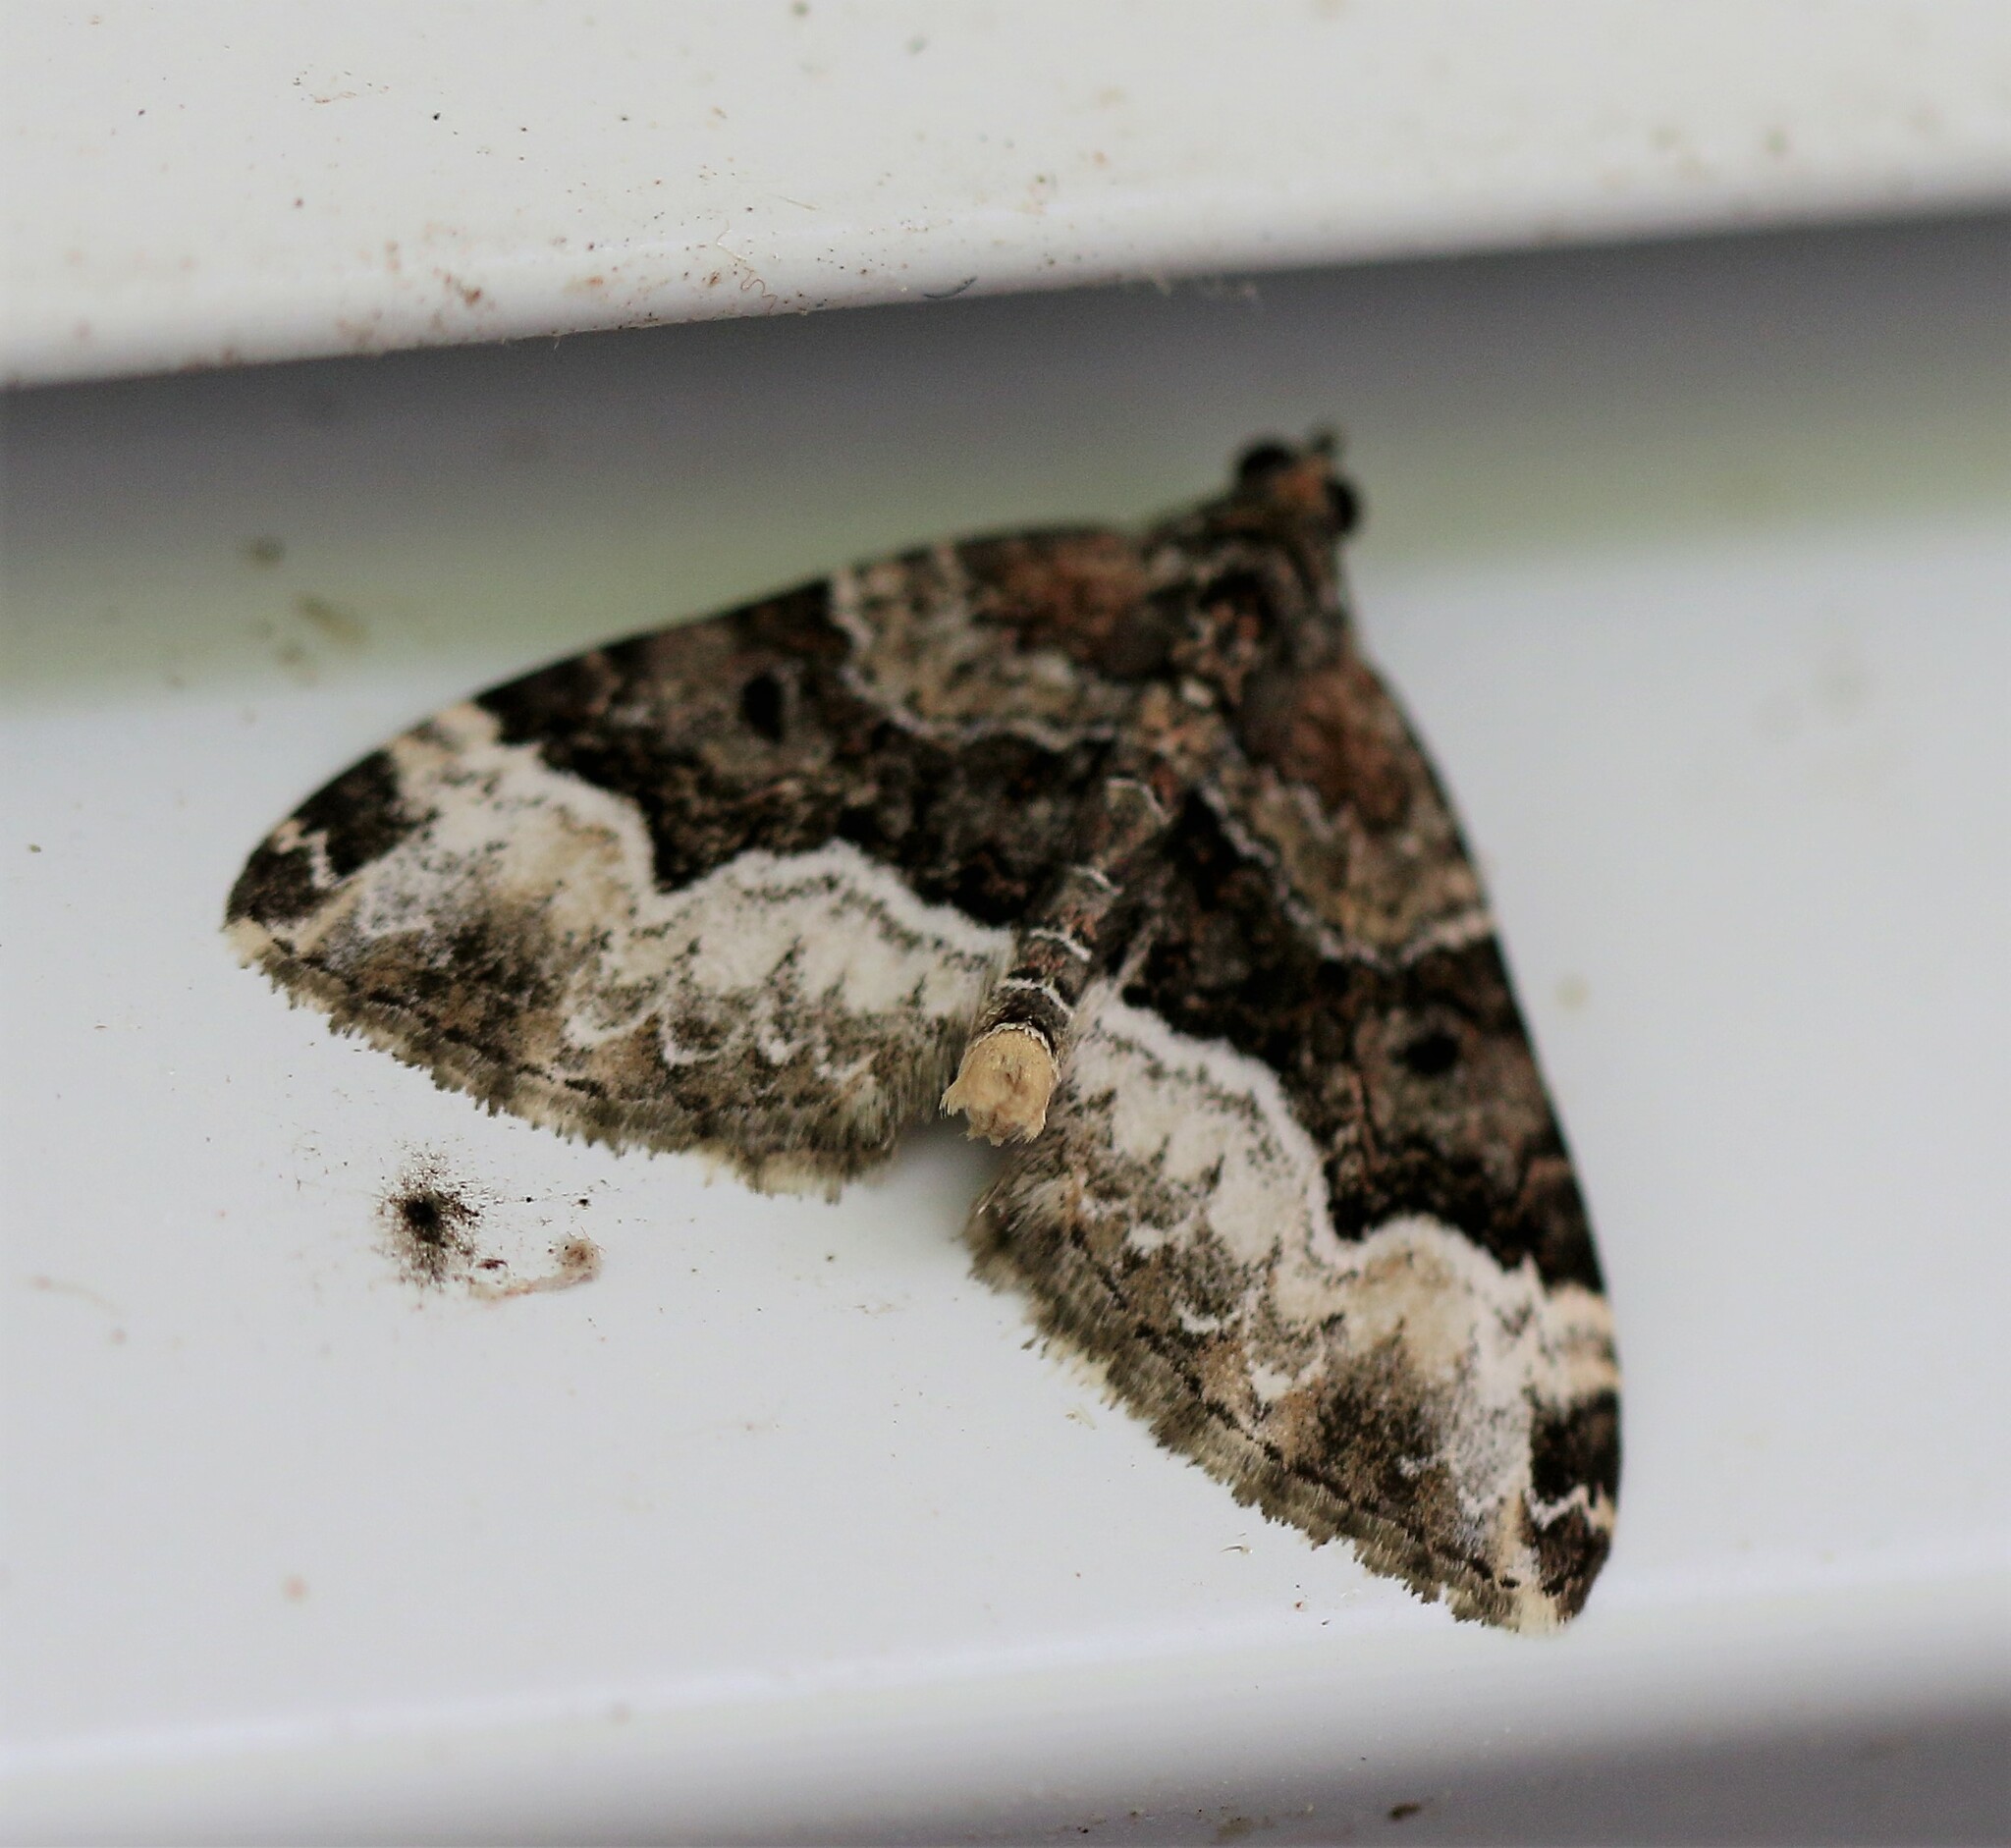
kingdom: Animalia
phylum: Arthropoda
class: Insecta
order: Lepidoptera
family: Geometridae
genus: Euphyia
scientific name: Euphyia intermediata
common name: Sharp-angled carpet
